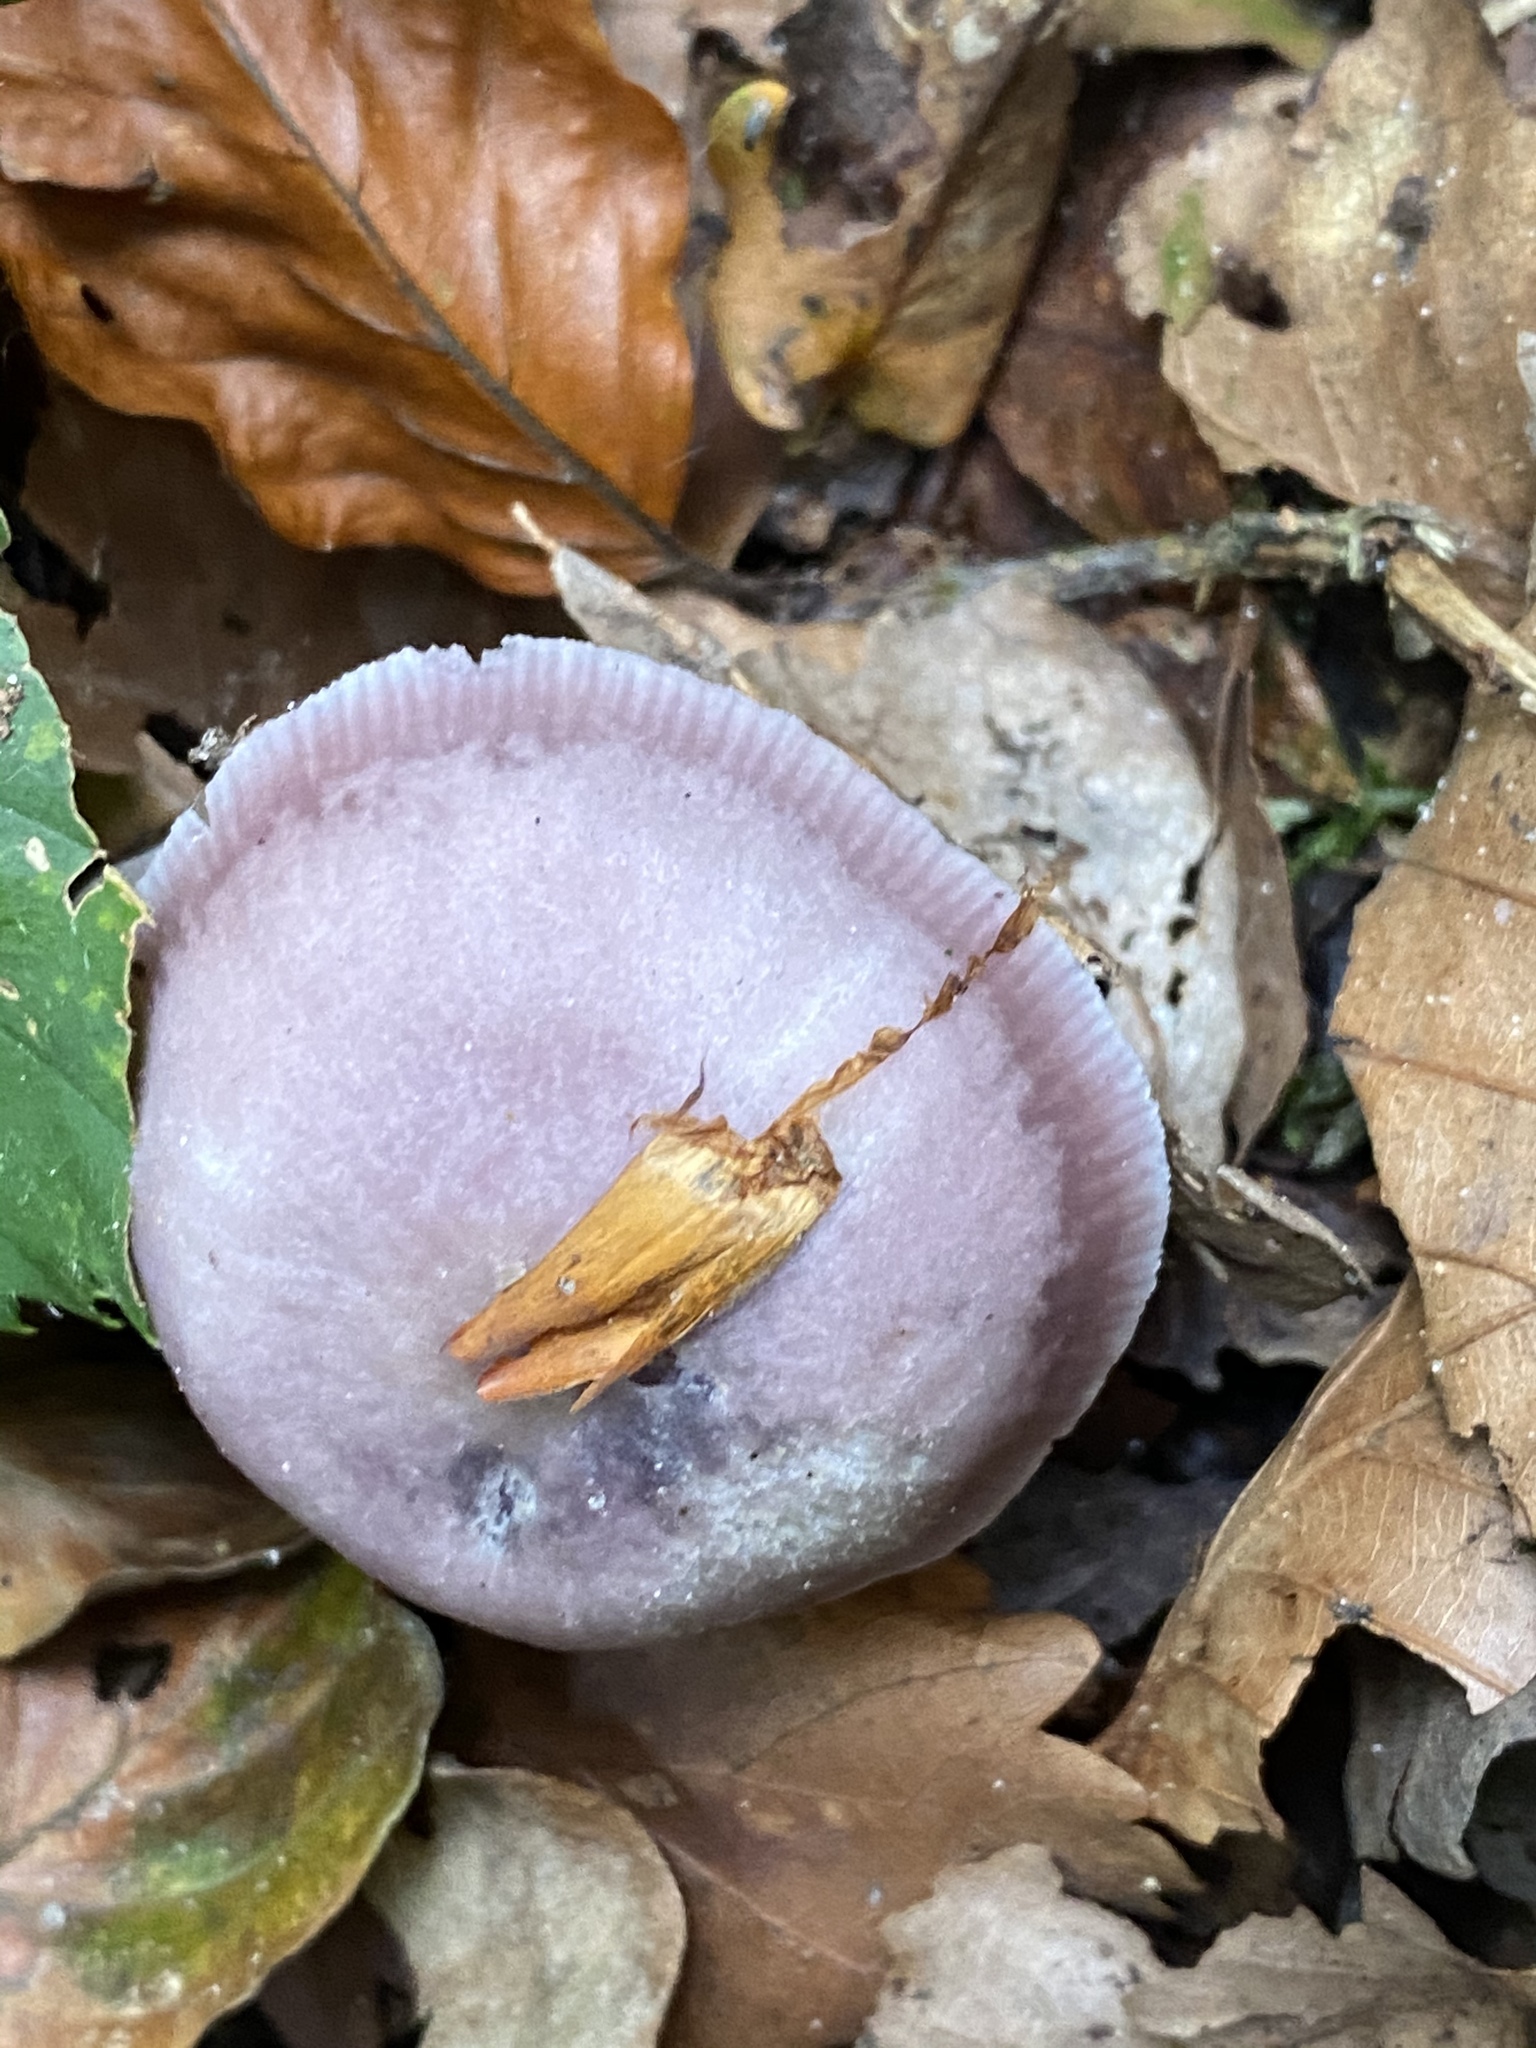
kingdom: Fungi
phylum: Basidiomycota
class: Agaricomycetes
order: Agaricales
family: Mycenaceae
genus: Mycena
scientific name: Mycena pura
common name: Lilac bonnet
